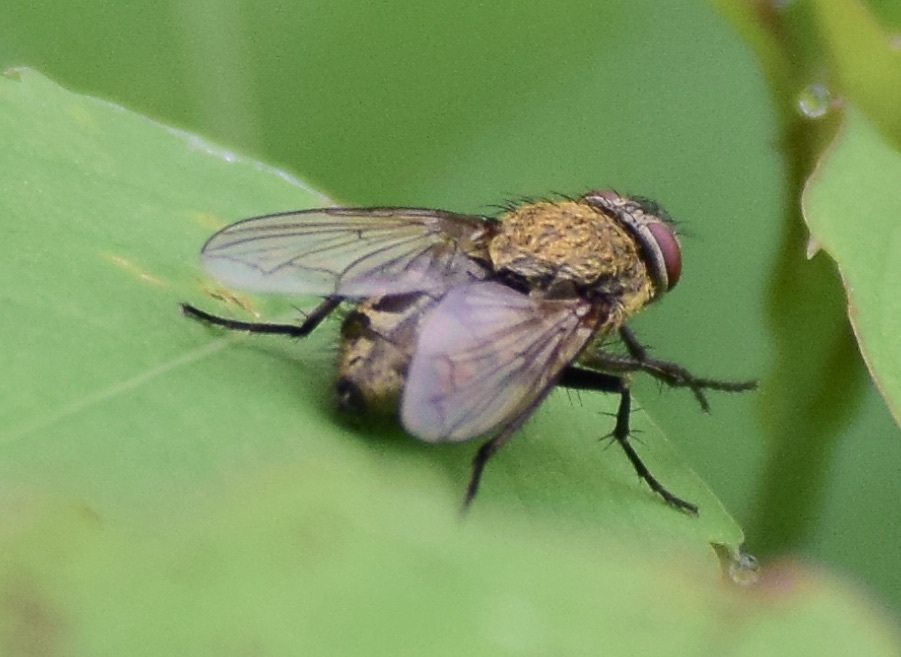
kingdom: Animalia
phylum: Arthropoda
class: Insecta
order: Diptera
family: Polleniidae
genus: Pollenia
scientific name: Pollenia
